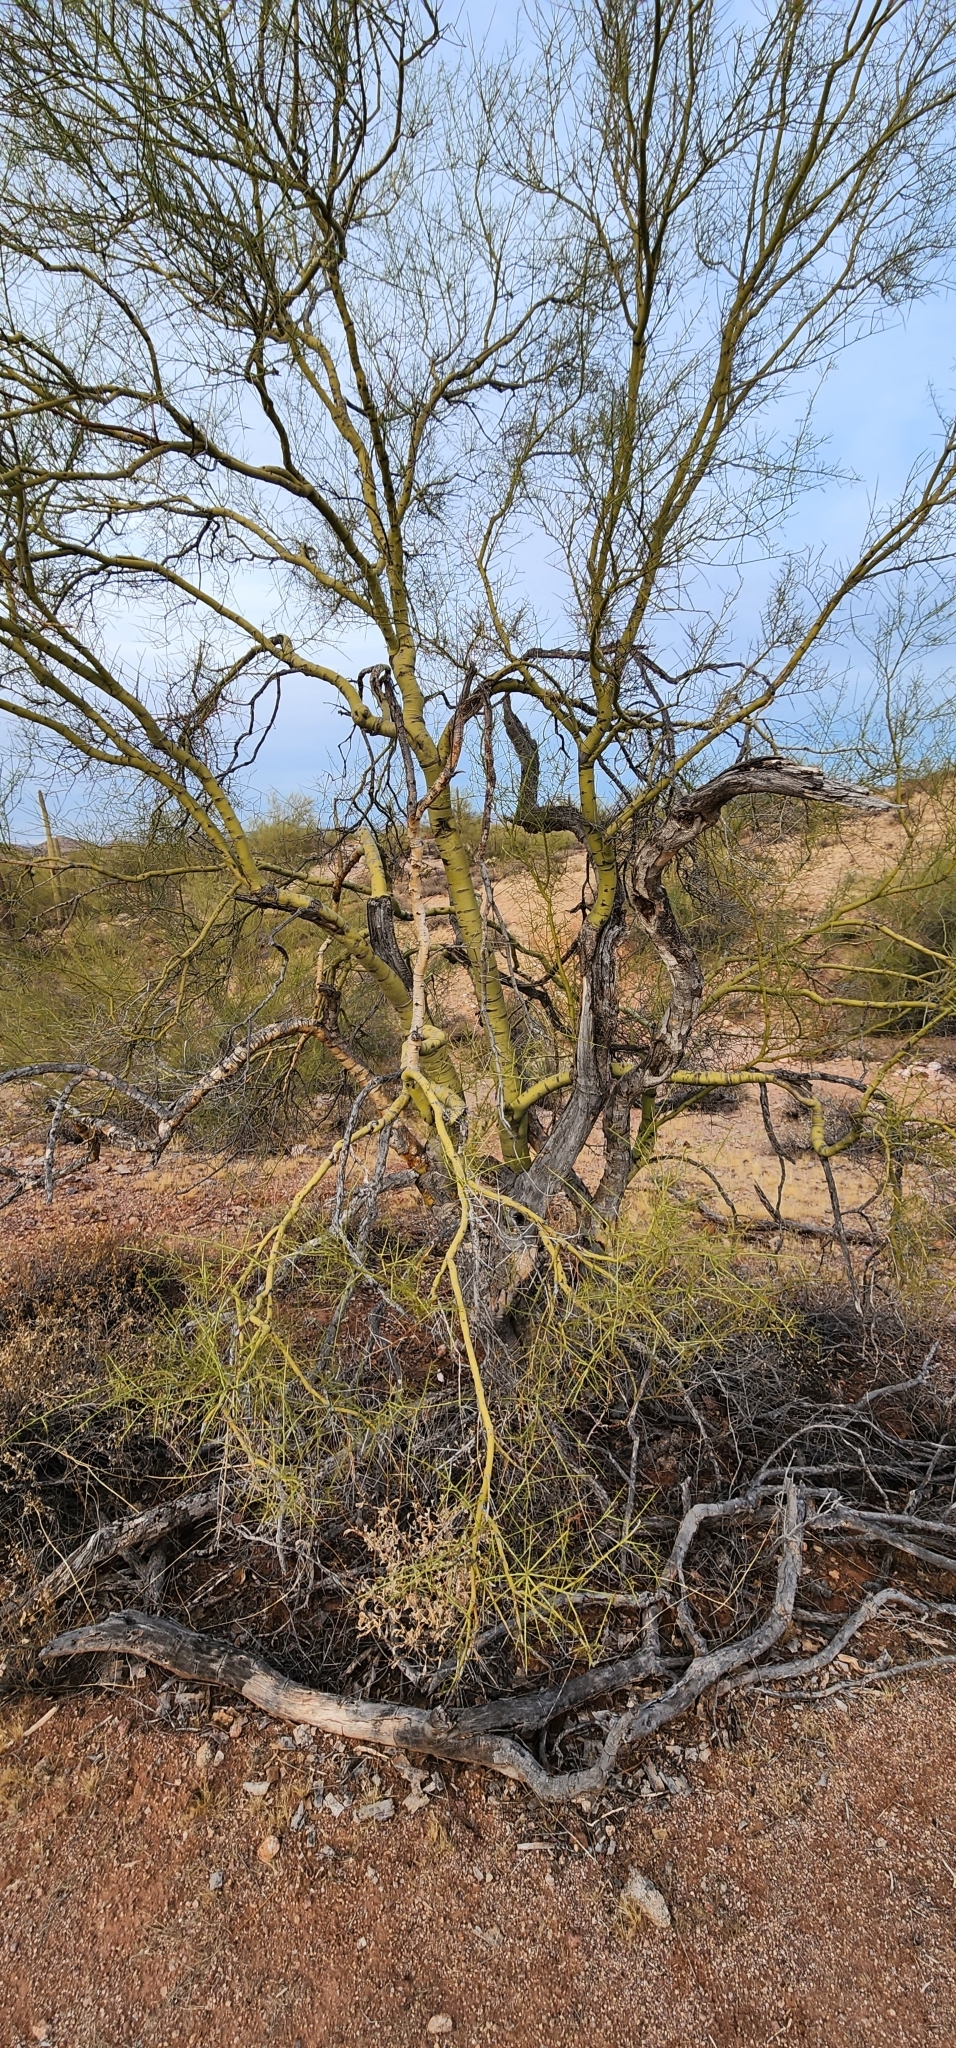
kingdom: Plantae
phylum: Tracheophyta
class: Magnoliopsida
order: Fabales
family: Fabaceae
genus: Parkinsonia
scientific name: Parkinsonia microphylla
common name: Yellow paloverde
